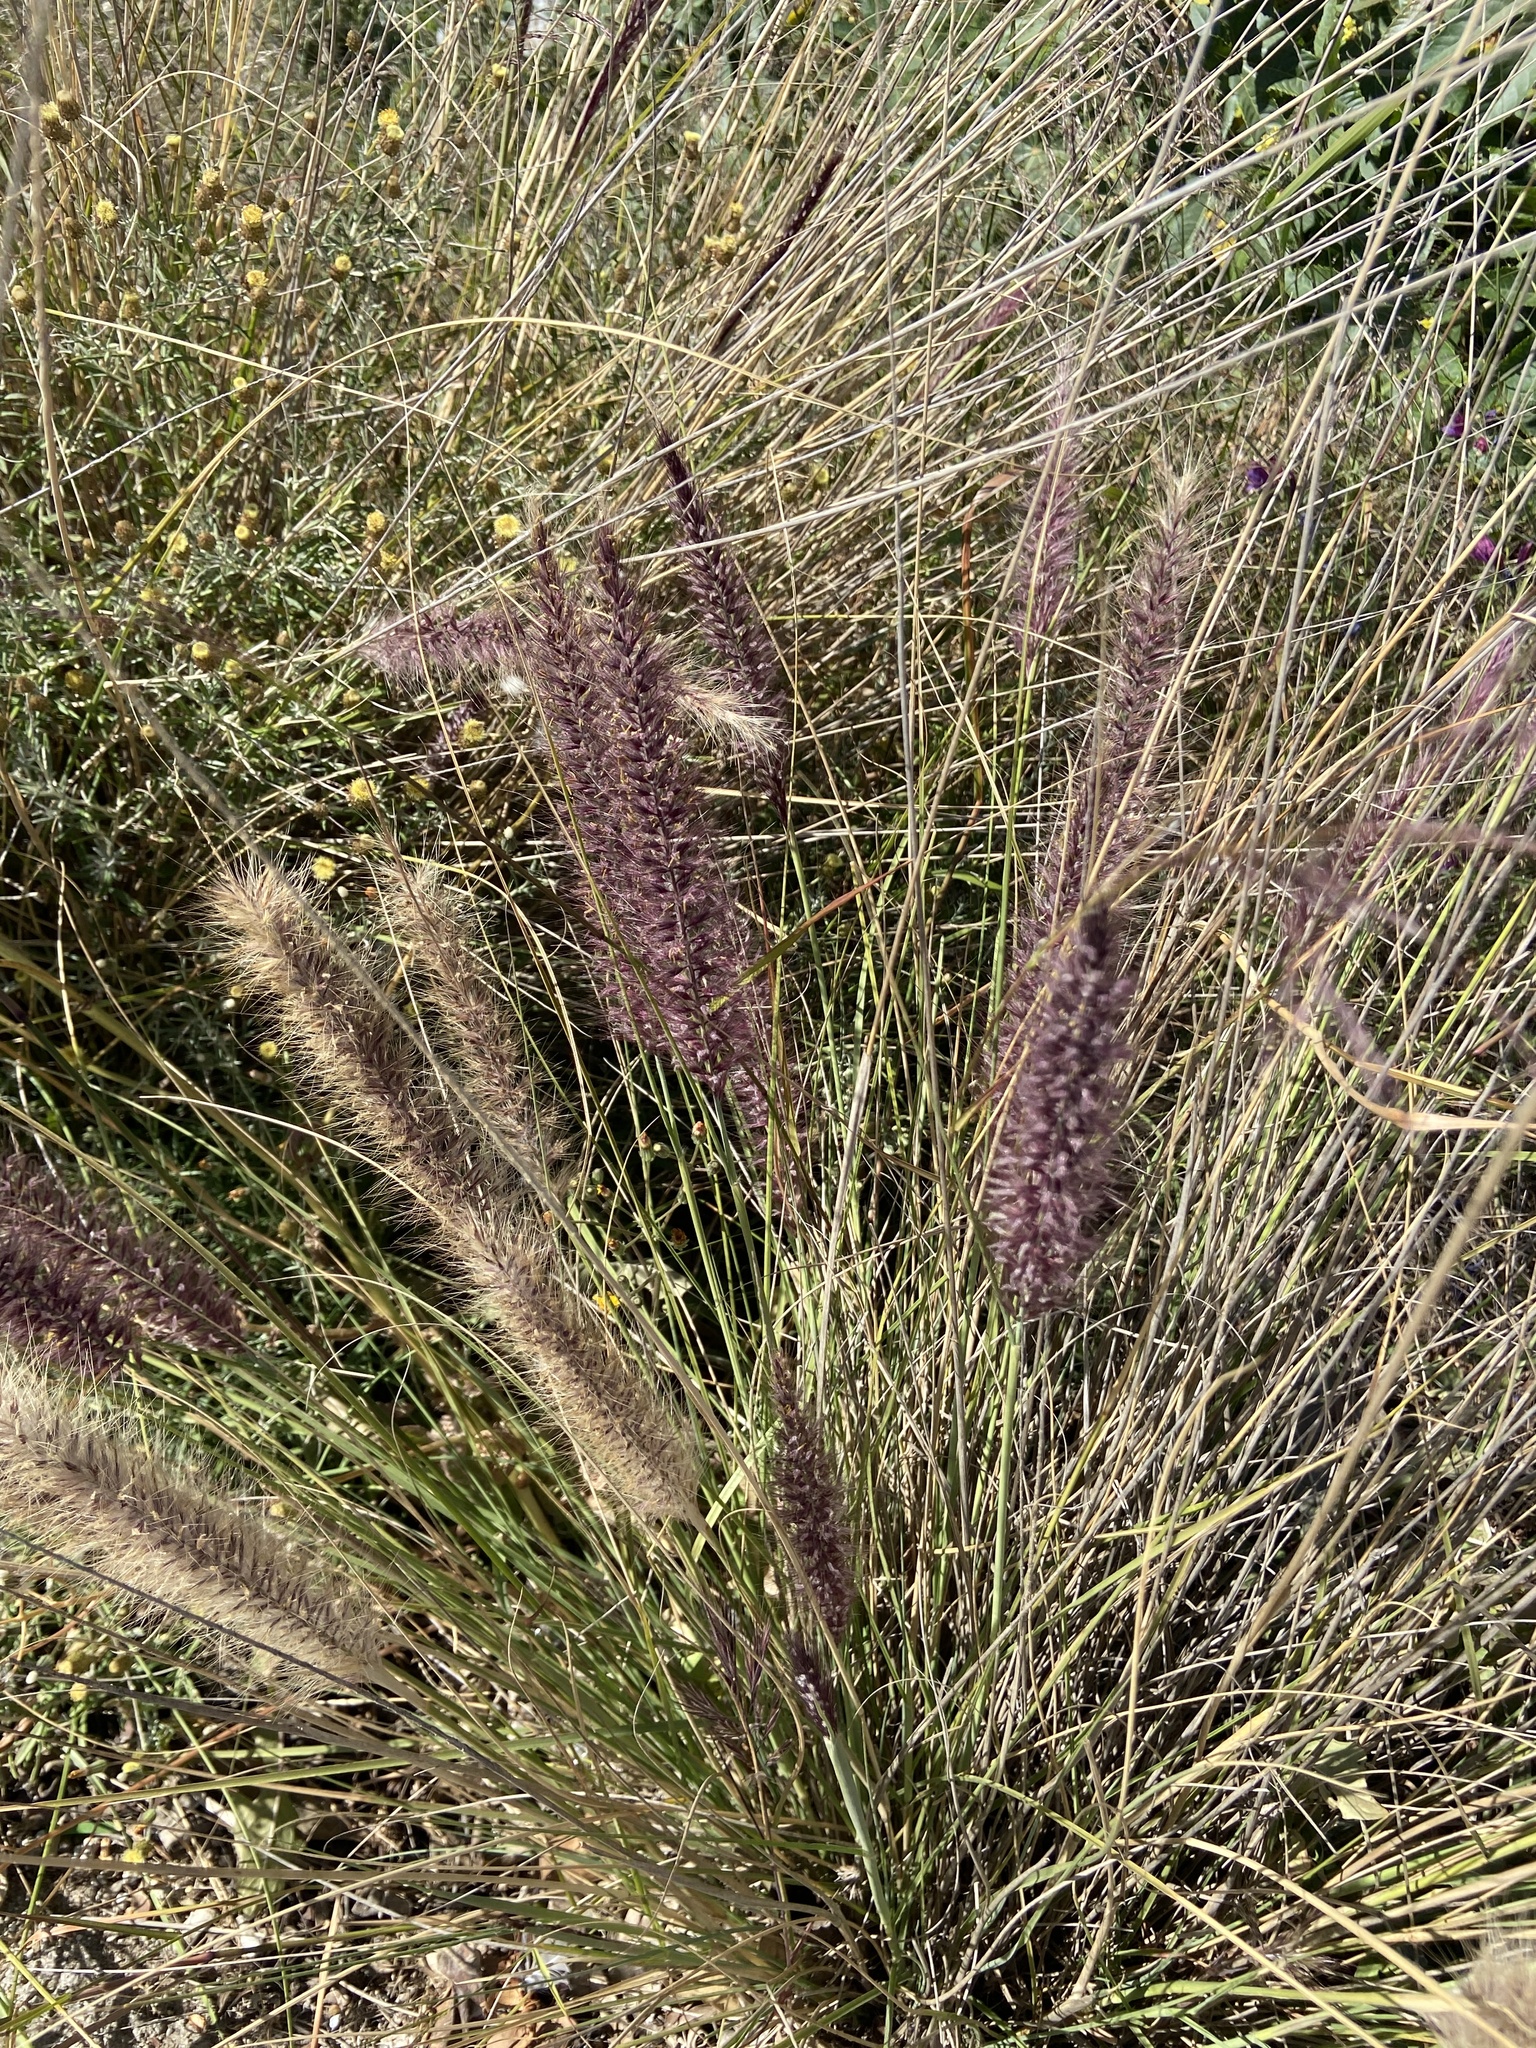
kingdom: Plantae
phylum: Tracheophyta
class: Liliopsida
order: Poales
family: Poaceae
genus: Cenchrus
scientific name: Cenchrus setaceus
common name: Crimson fountaingrass
